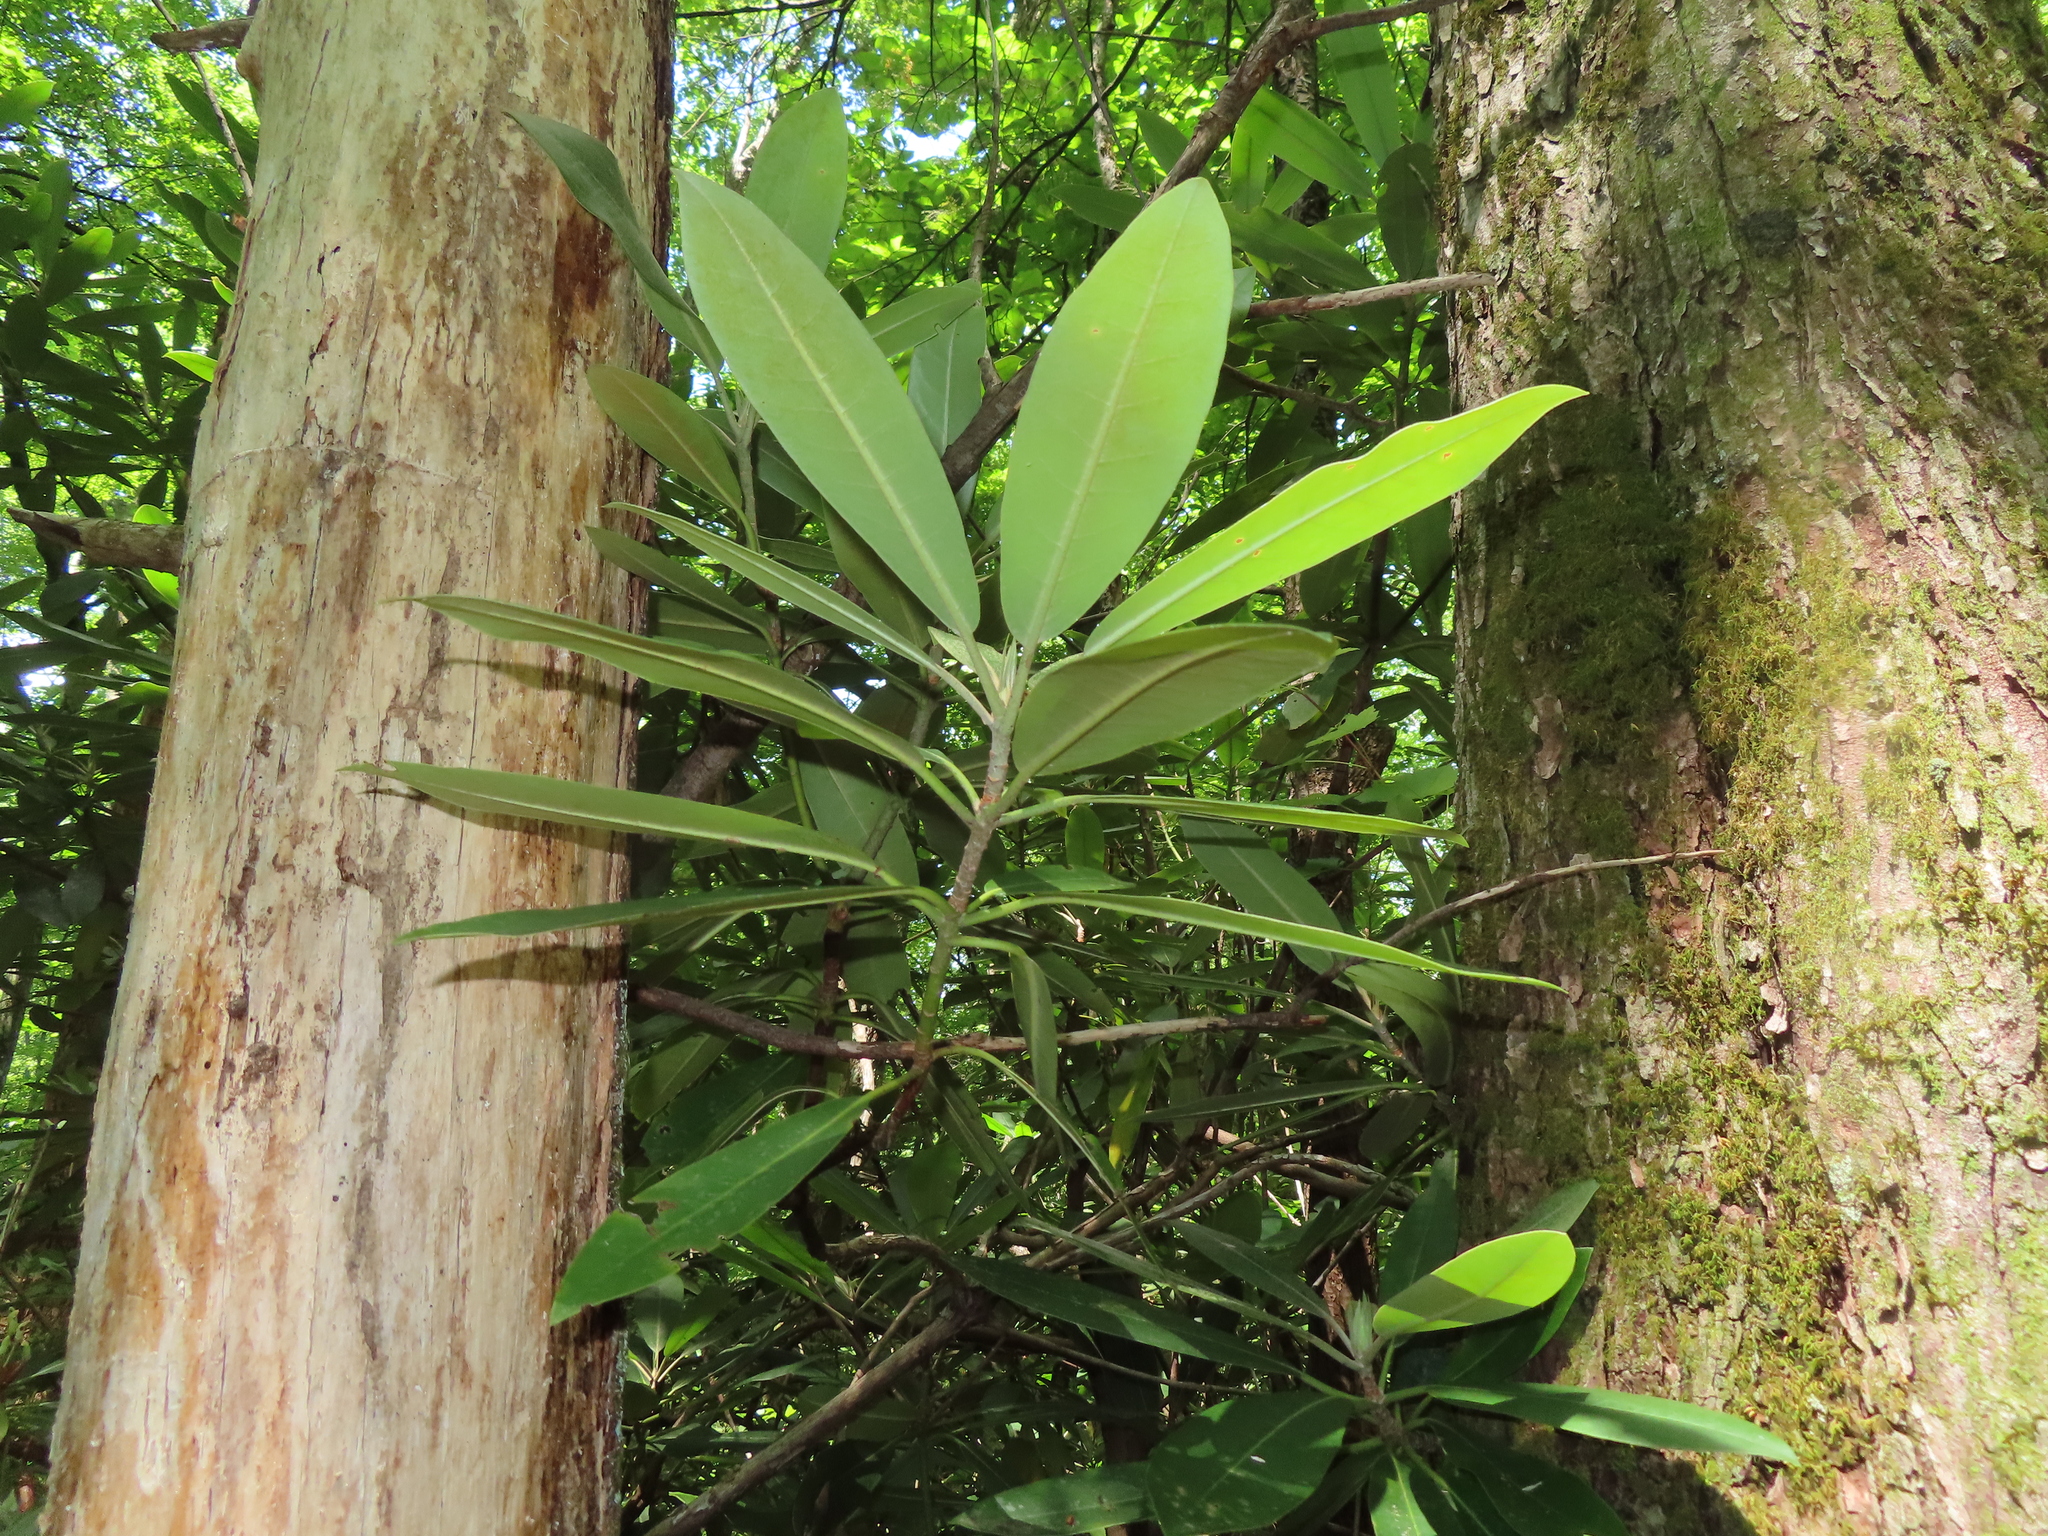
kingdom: Plantae
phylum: Tracheophyta
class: Magnoliopsida
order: Ericales
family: Ericaceae
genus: Rhododendron
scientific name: Rhododendron maximum
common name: Great rhododendron
